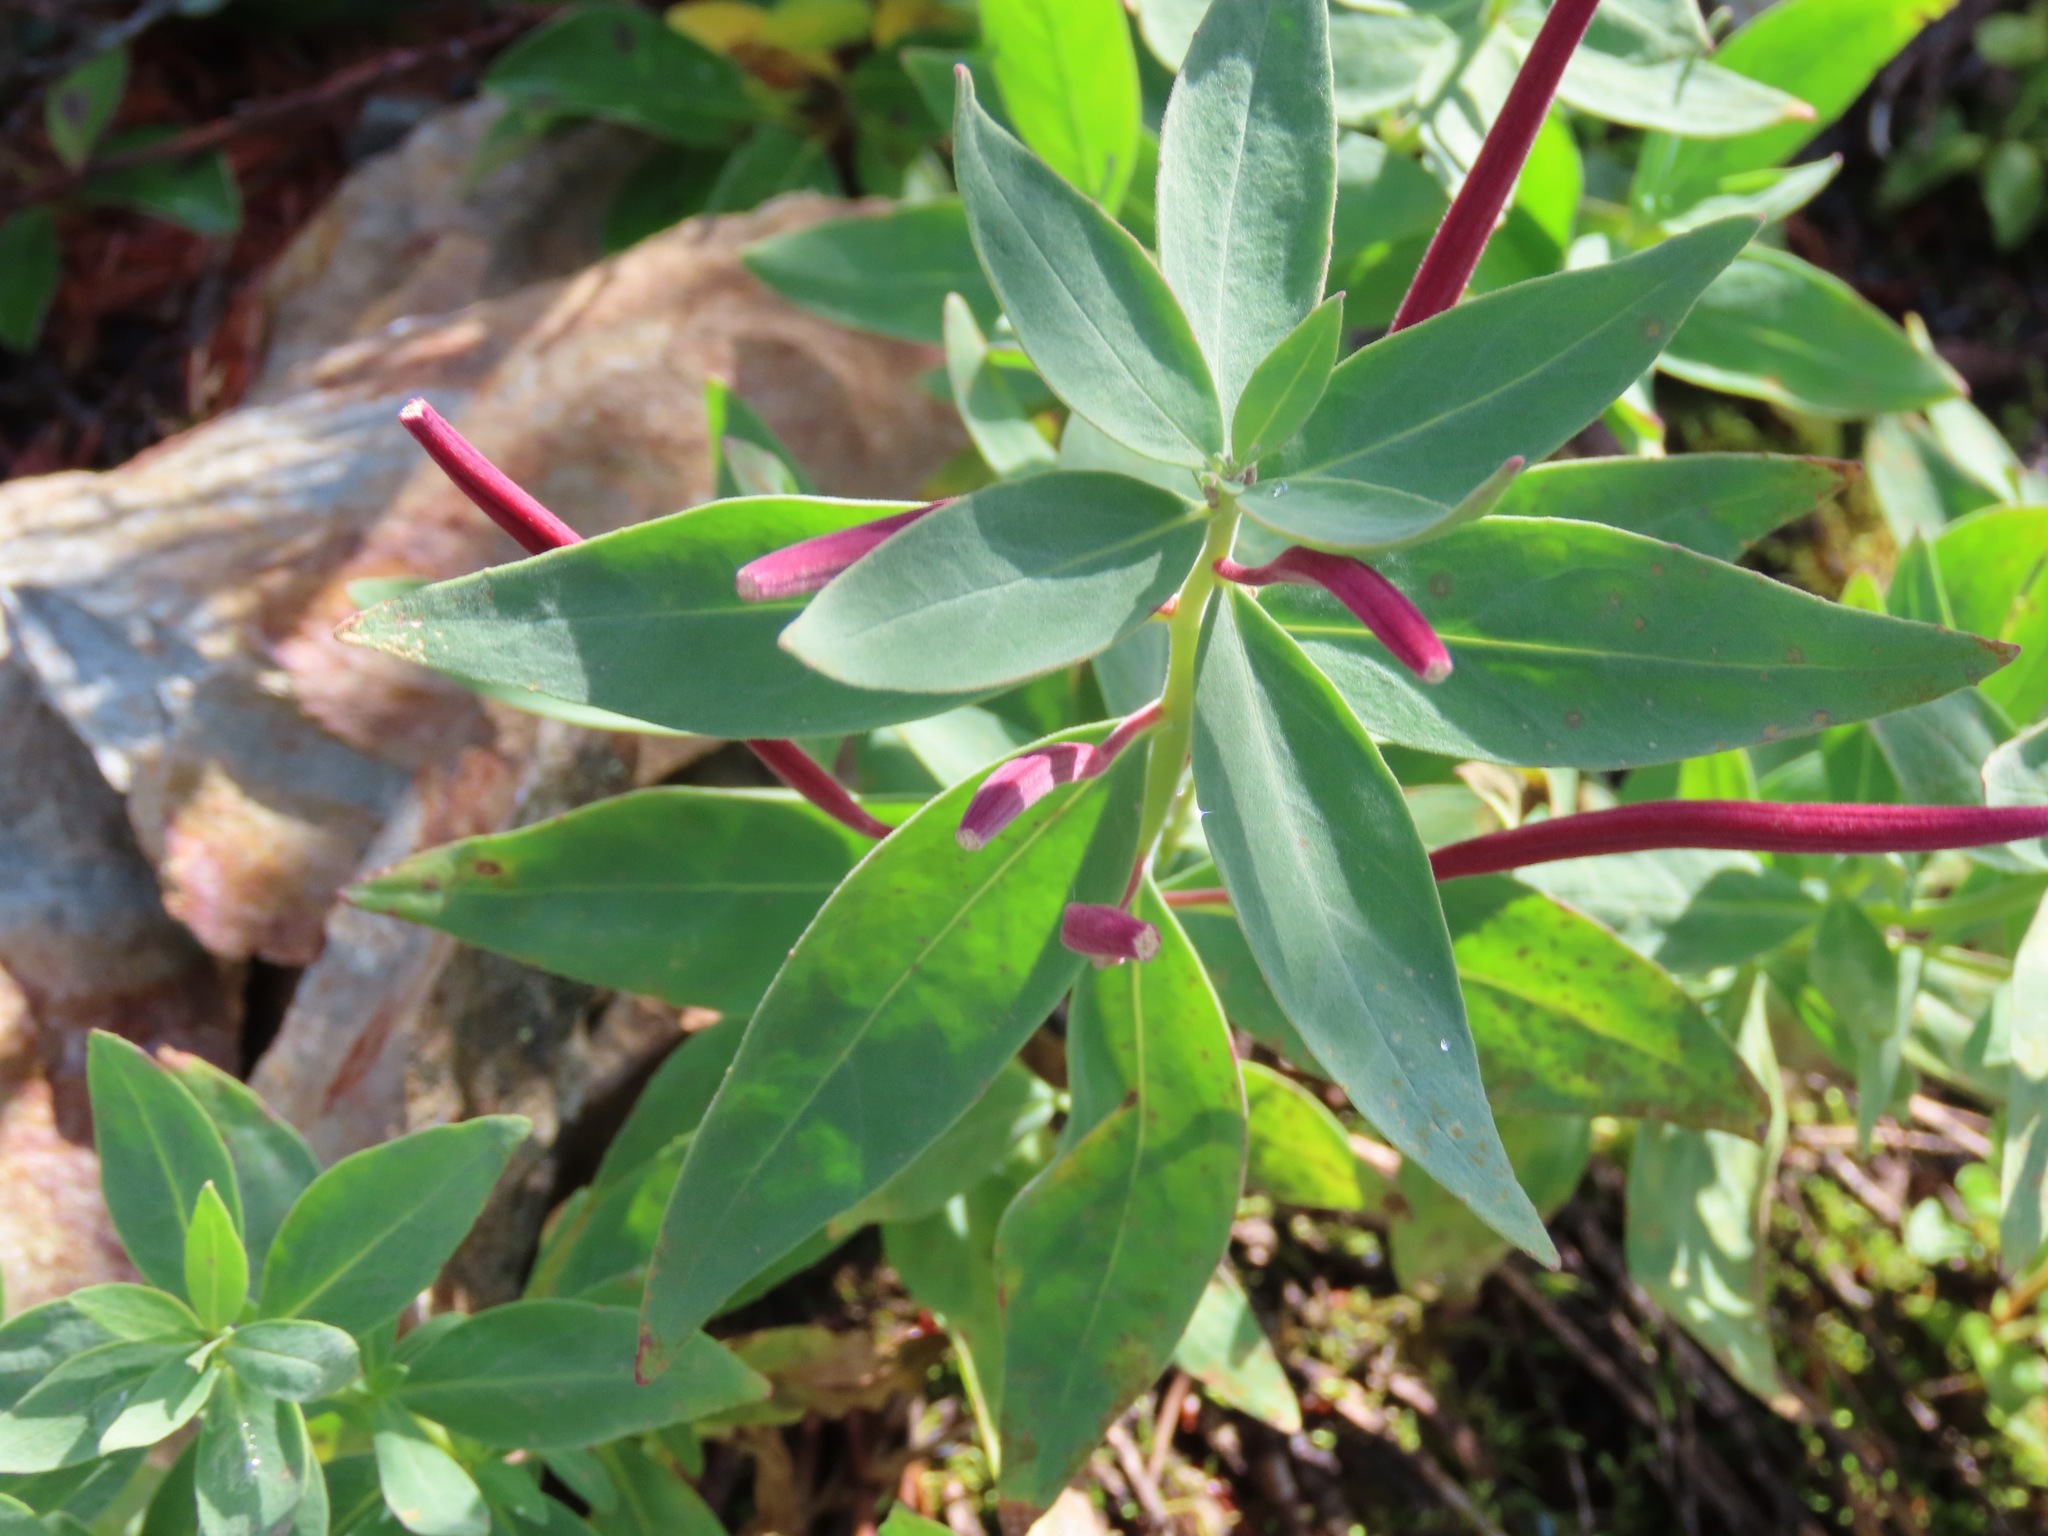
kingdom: Plantae
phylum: Tracheophyta
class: Magnoliopsida
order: Myrtales
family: Onagraceae
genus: Chamaenerion
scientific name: Chamaenerion latifolium
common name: Dwarf fireweed
